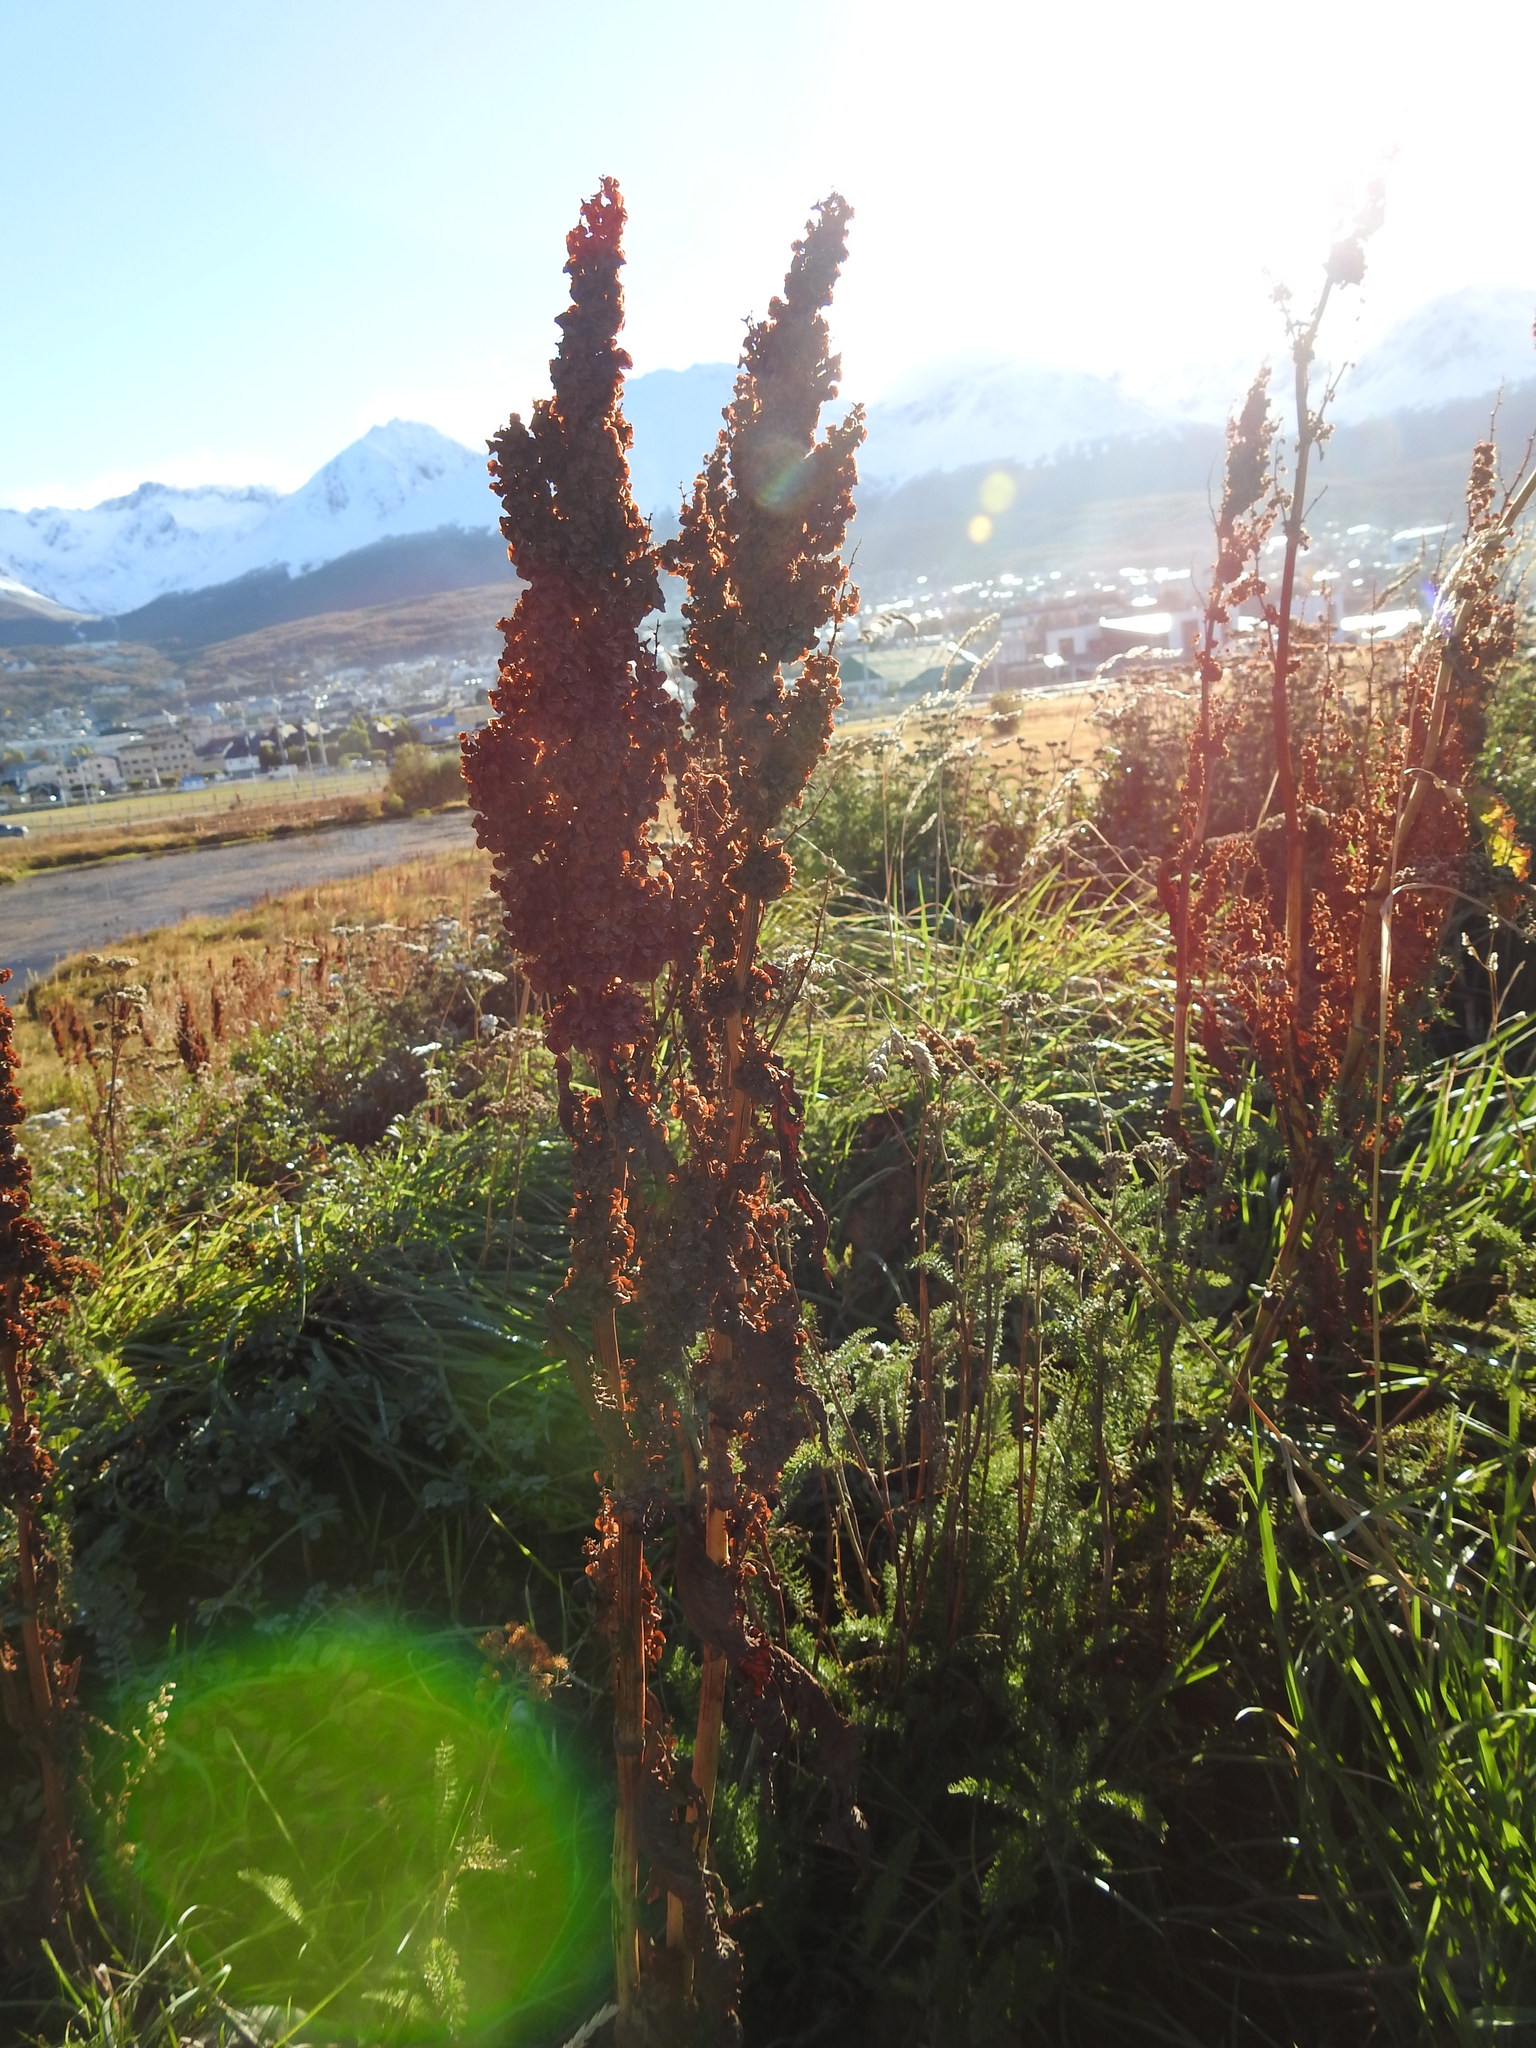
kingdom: Plantae
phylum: Tracheophyta
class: Magnoliopsida
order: Caryophyllales
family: Polygonaceae
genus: Rumex
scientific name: Rumex crispus
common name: Curled dock
